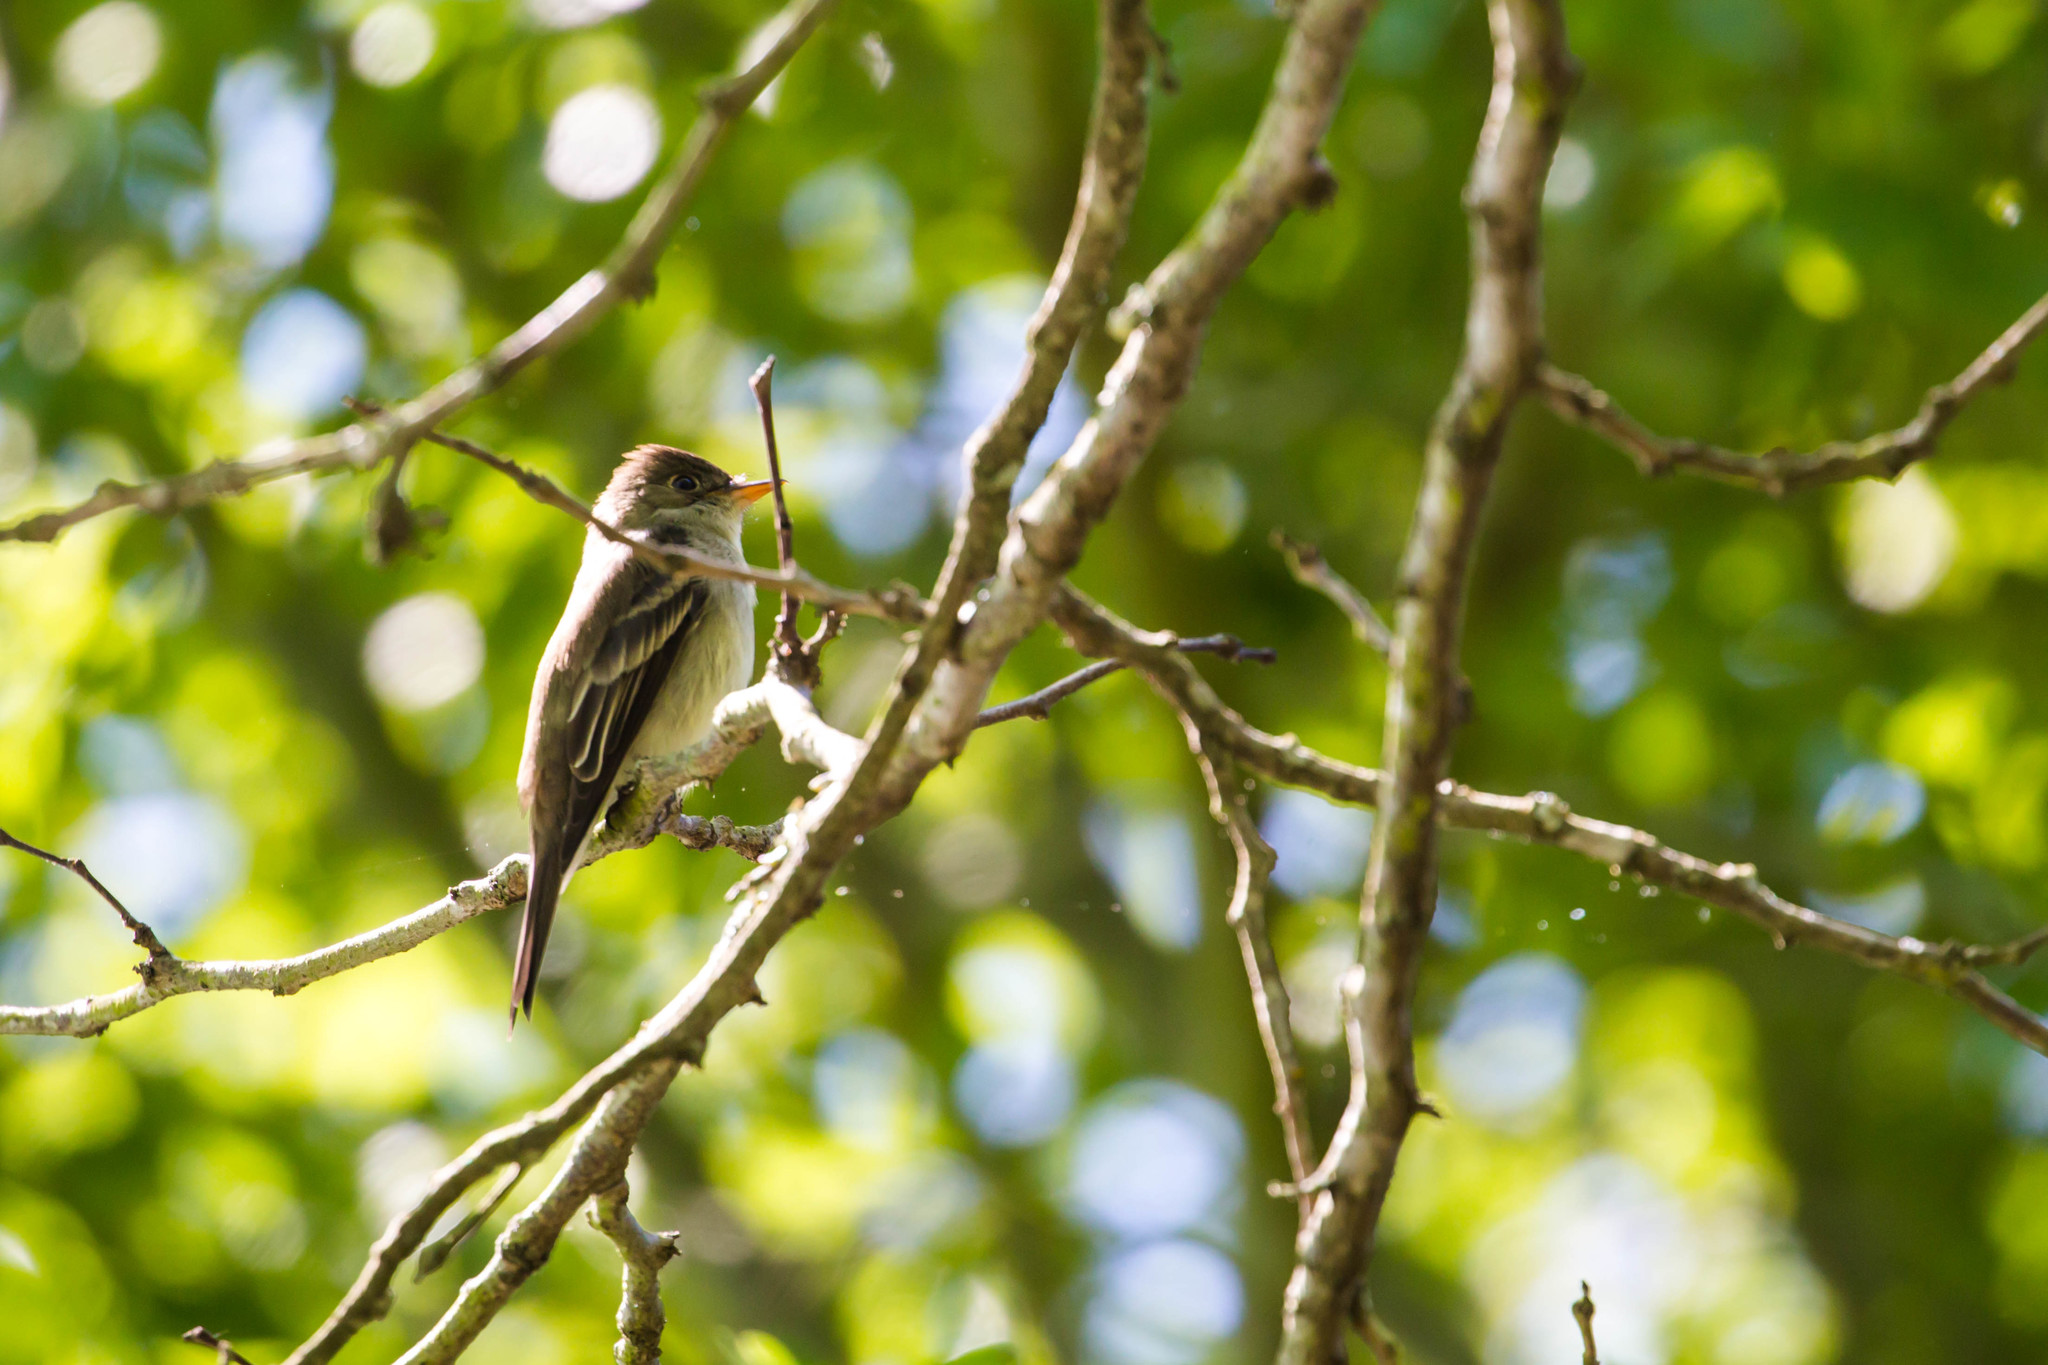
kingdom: Animalia
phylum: Chordata
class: Aves
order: Passeriformes
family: Tyrannidae
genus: Contopus
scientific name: Contopus virens
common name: Eastern wood-pewee
